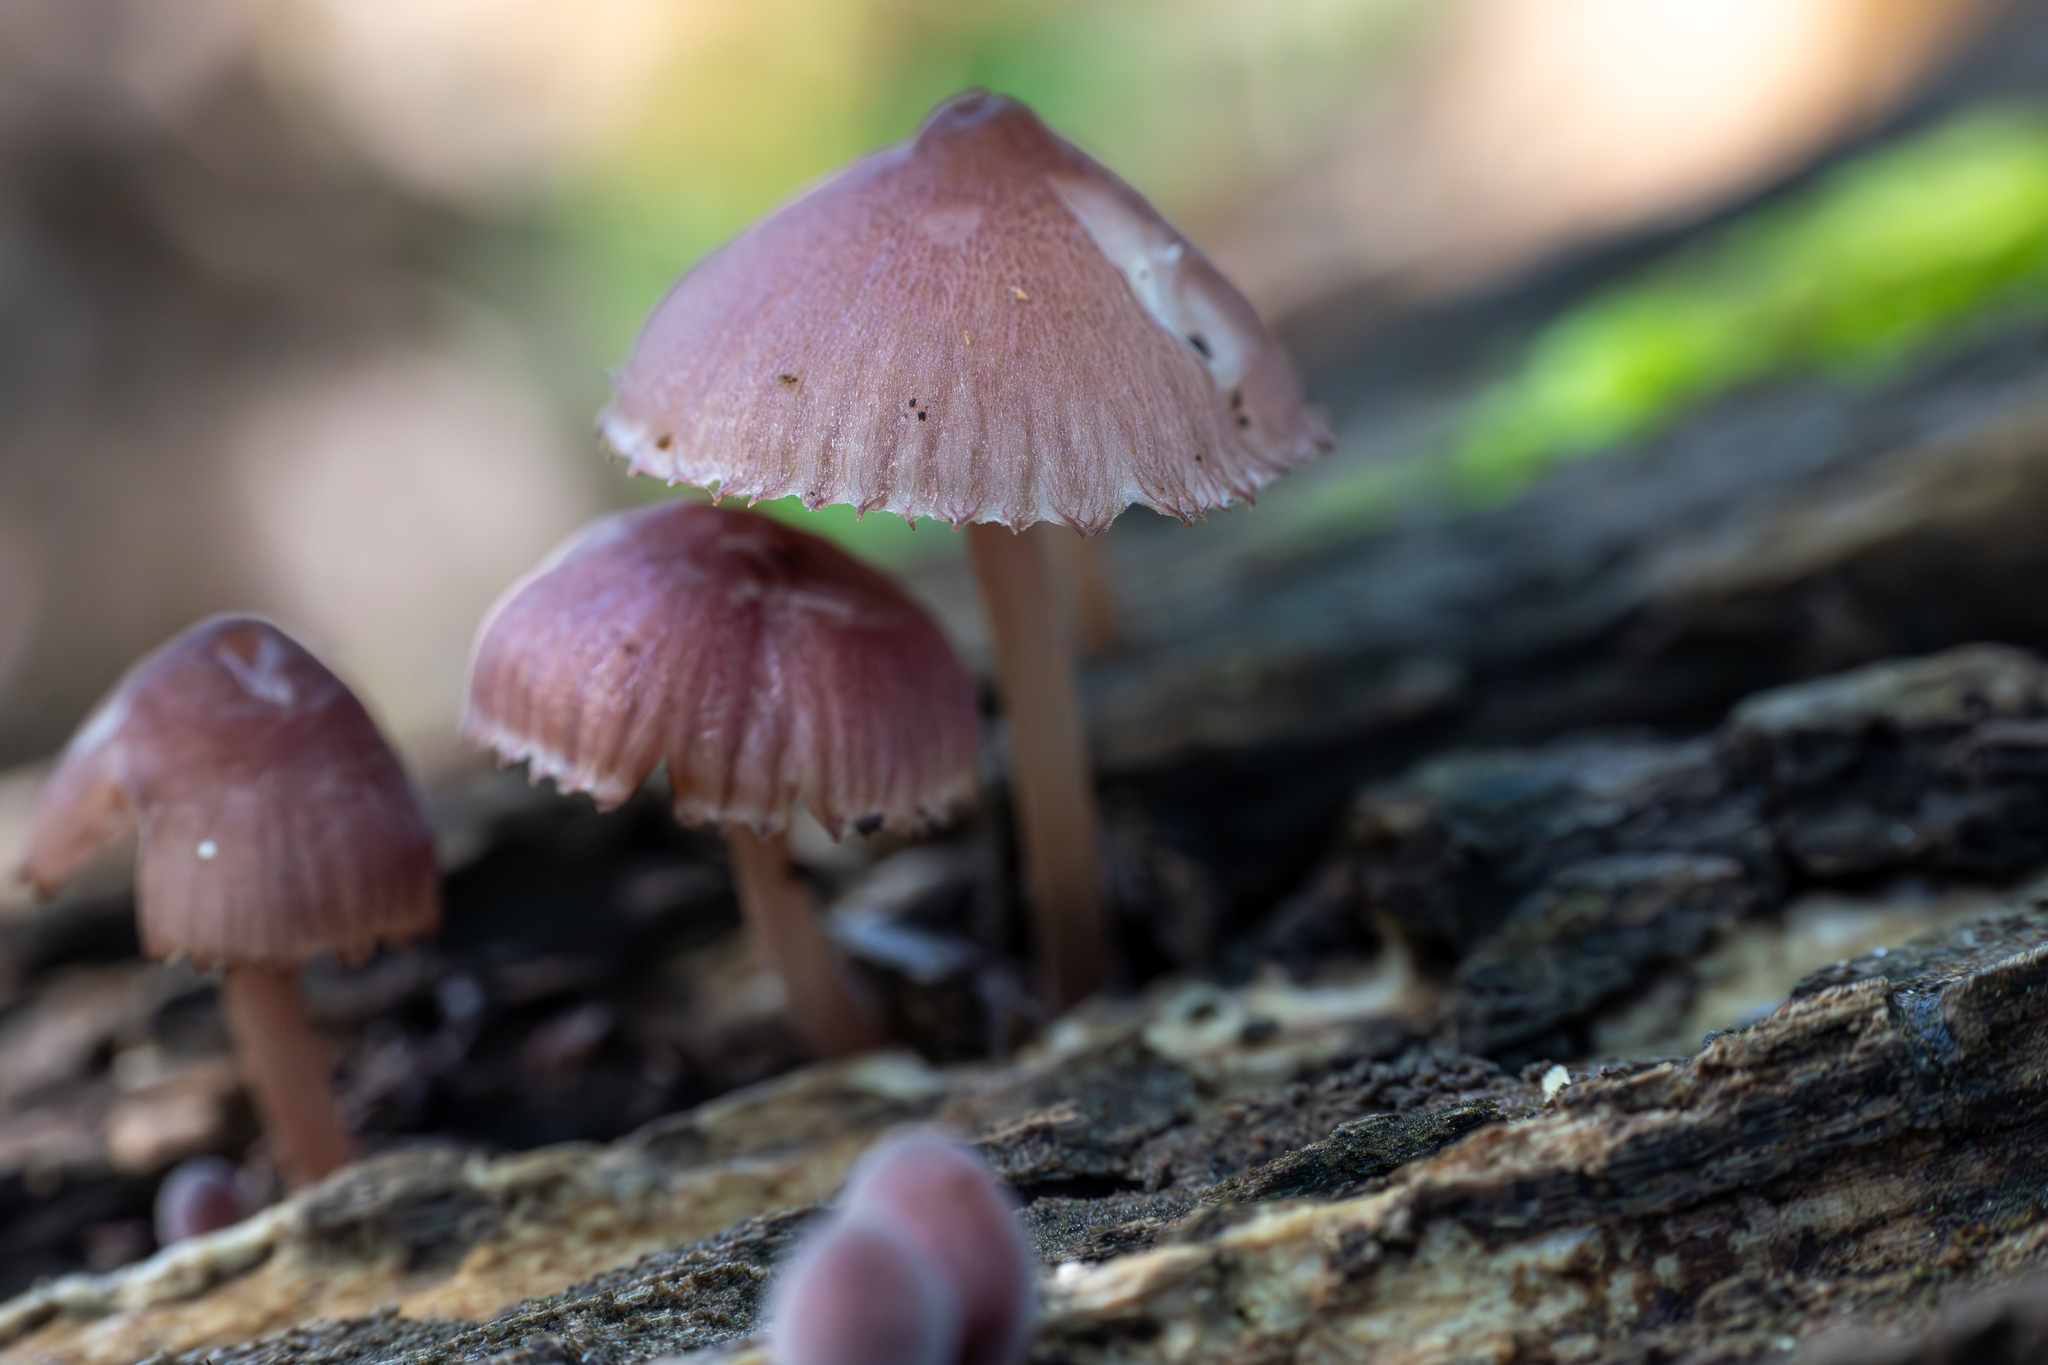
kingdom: Fungi
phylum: Basidiomycota
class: Agaricomycetes
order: Agaricales
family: Mycenaceae
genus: Mycena
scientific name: Mycena haematopus
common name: Burgundydrop bonnet
